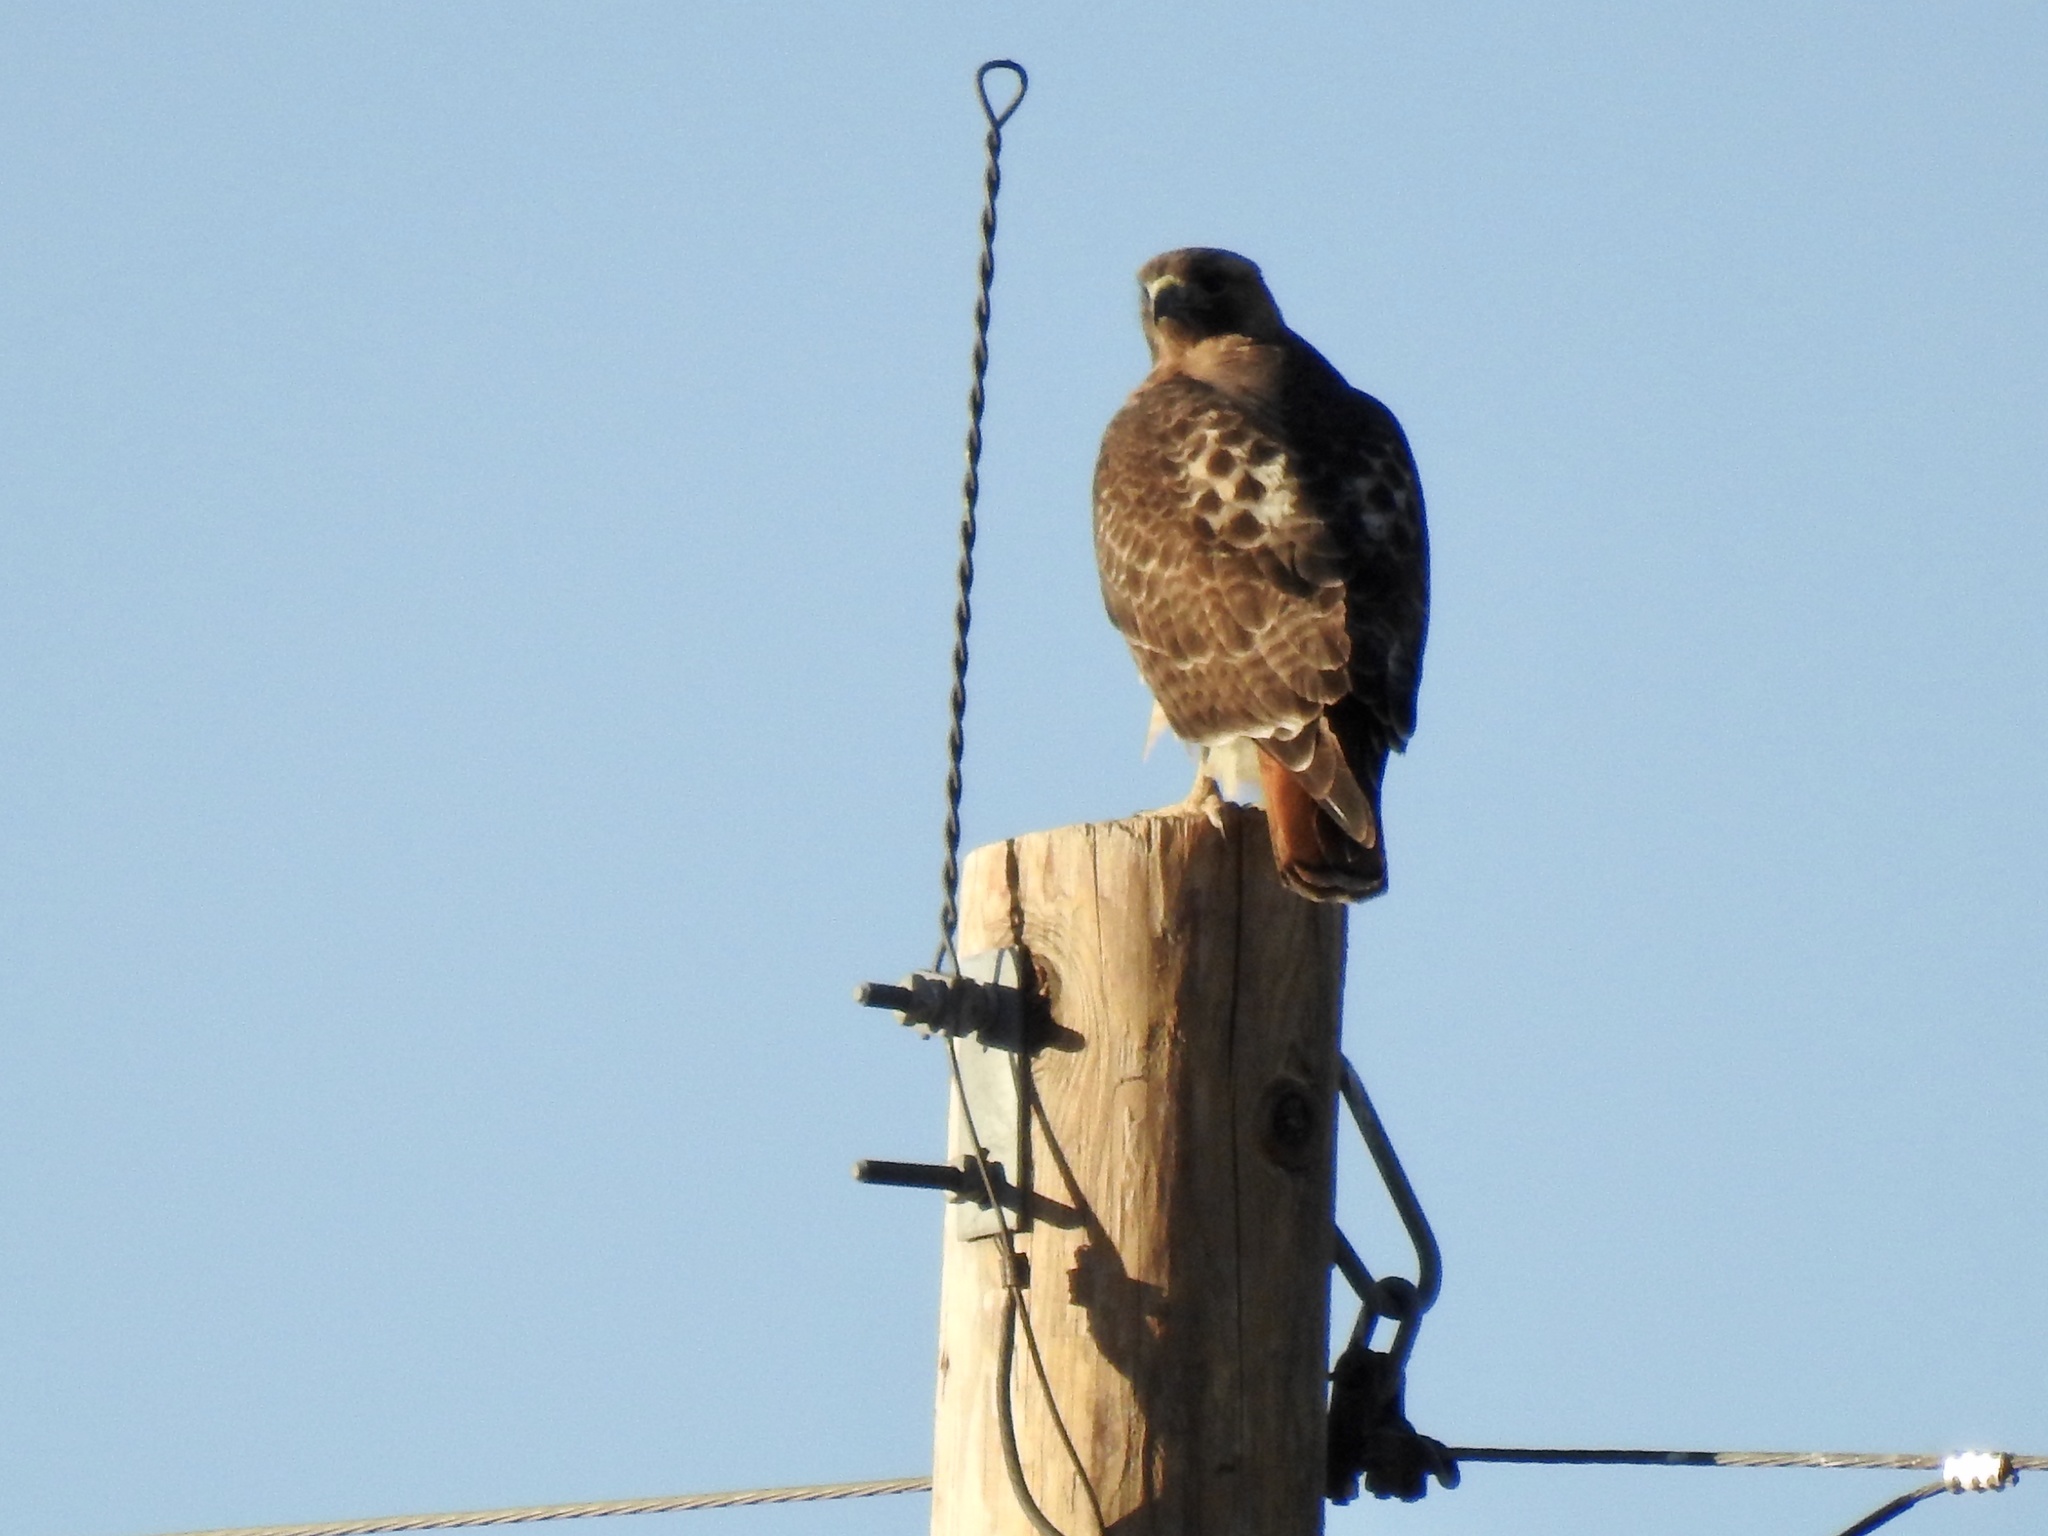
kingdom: Animalia
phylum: Chordata
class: Aves
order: Accipitriformes
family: Accipitridae
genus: Buteo
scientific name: Buteo jamaicensis
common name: Red-tailed hawk
